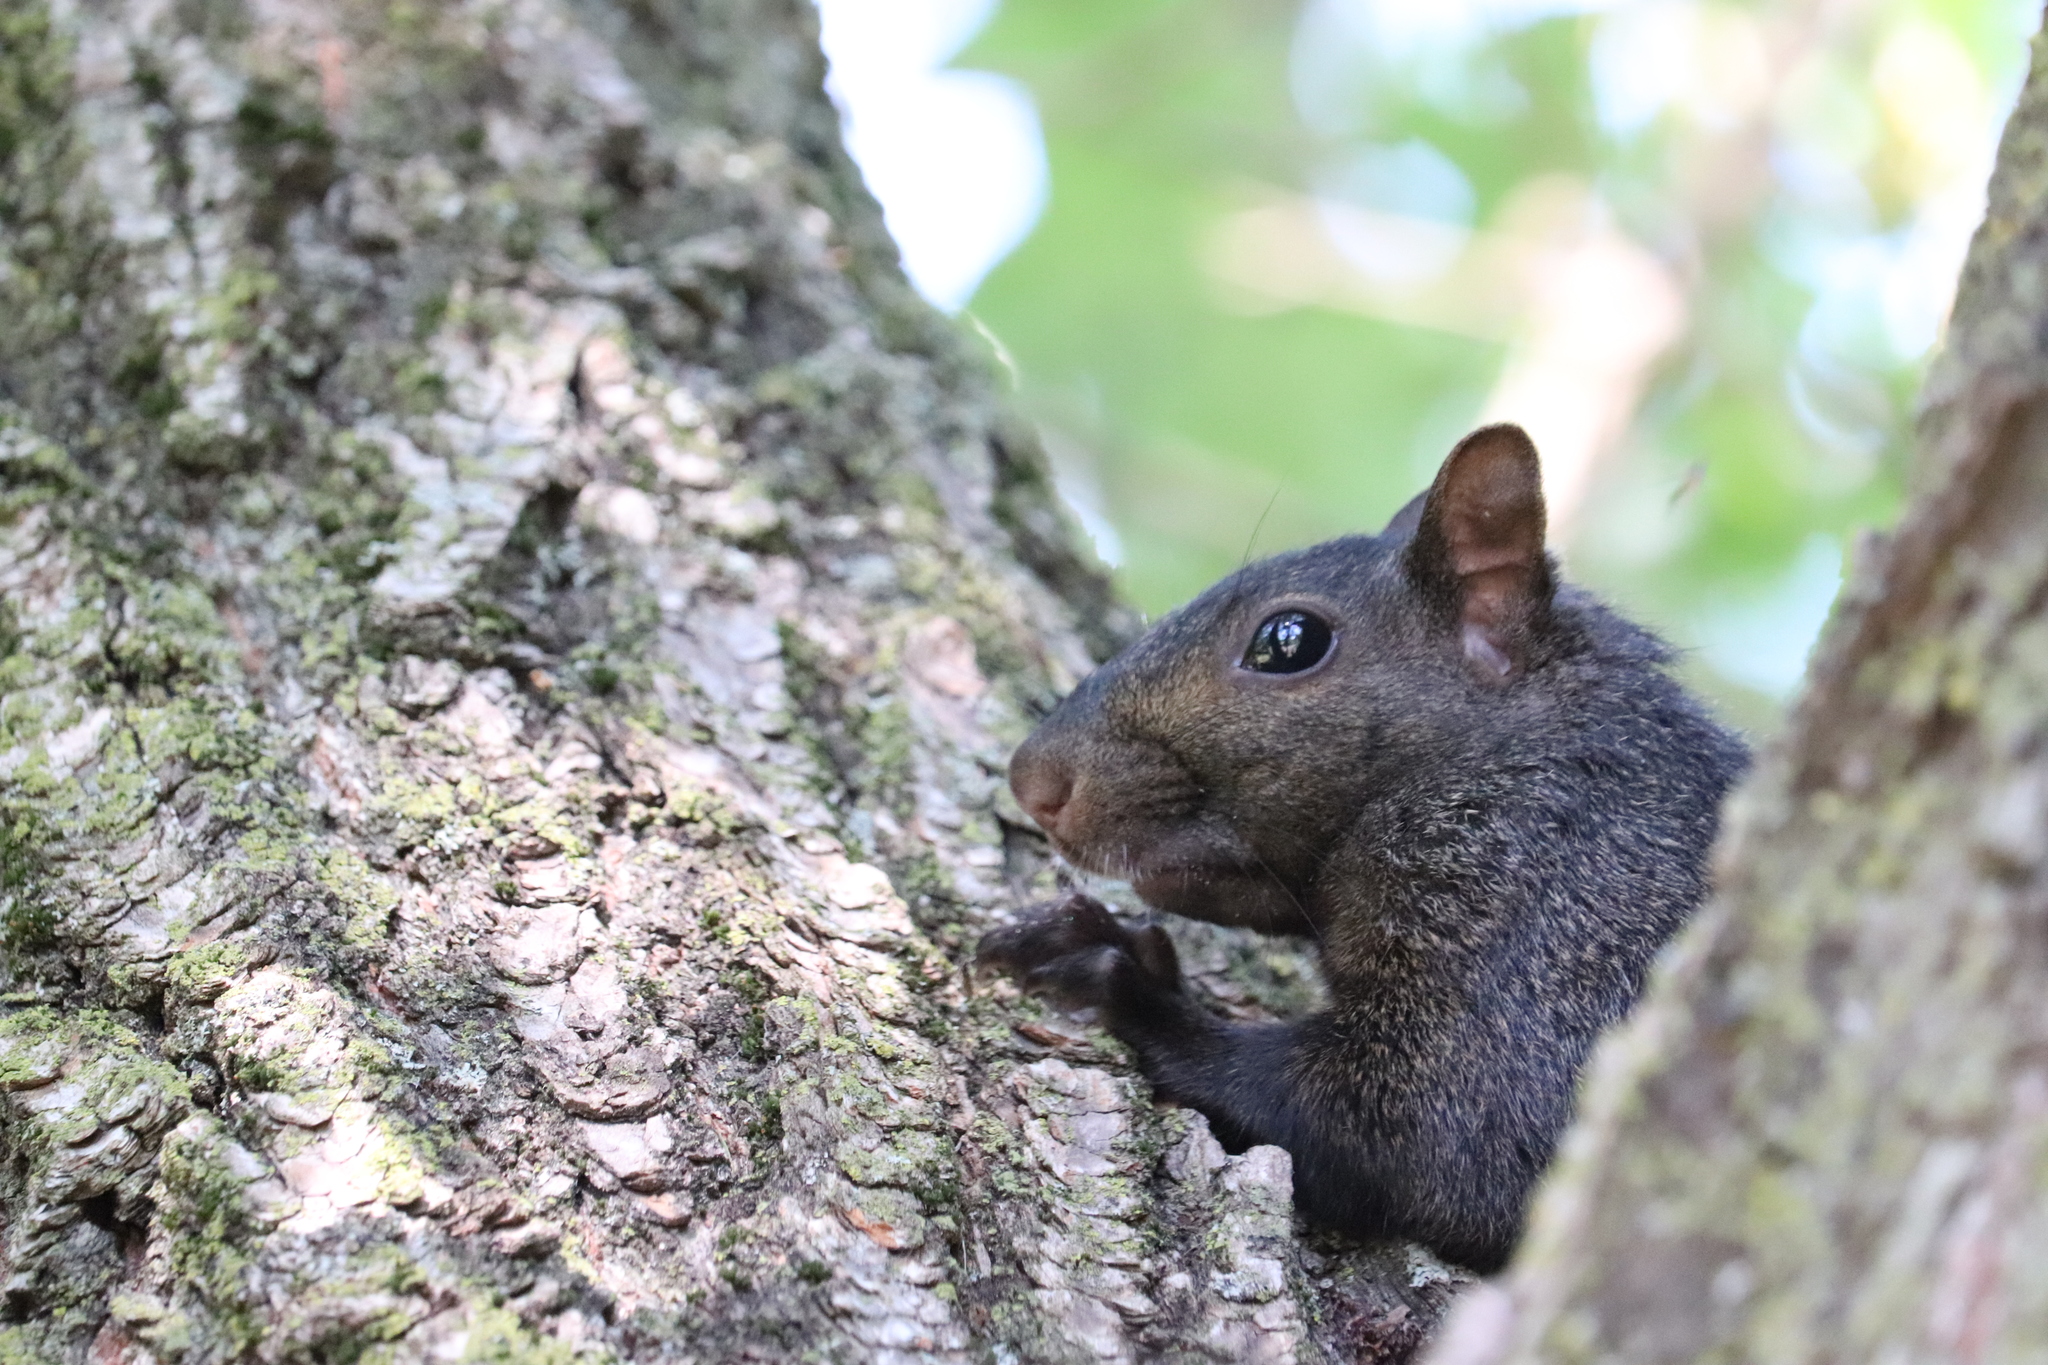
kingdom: Animalia
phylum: Chordata
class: Mammalia
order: Rodentia
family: Sciuridae
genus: Sciurus
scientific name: Sciurus carolinensis
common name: Eastern gray squirrel
